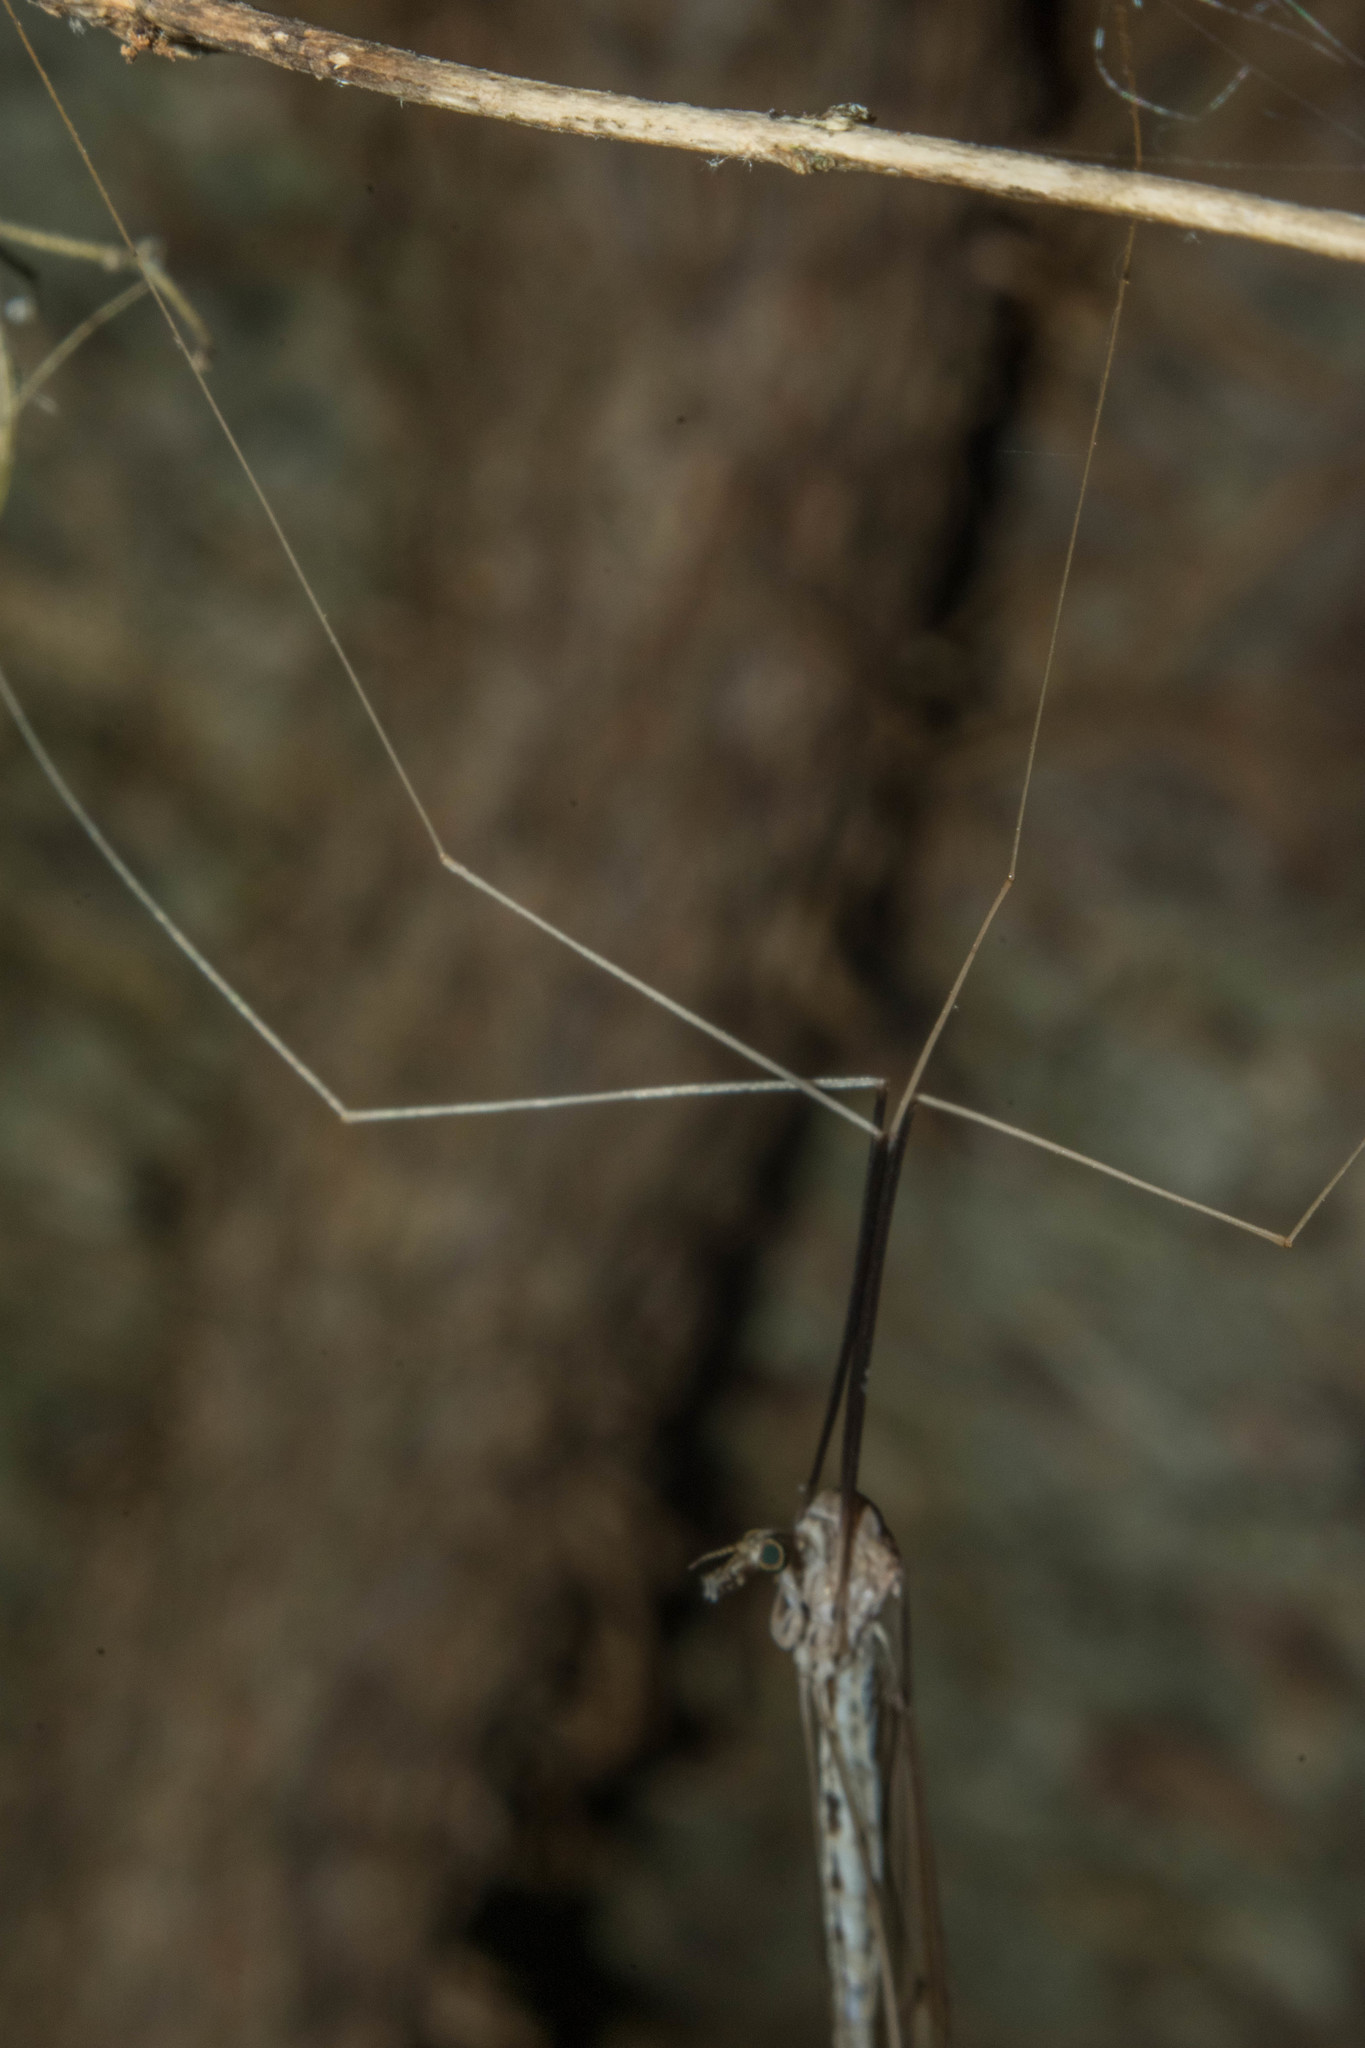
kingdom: Animalia
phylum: Arthropoda
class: Insecta
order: Diptera
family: Tipulidae
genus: Brachypremna
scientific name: Brachypremna dispellens
